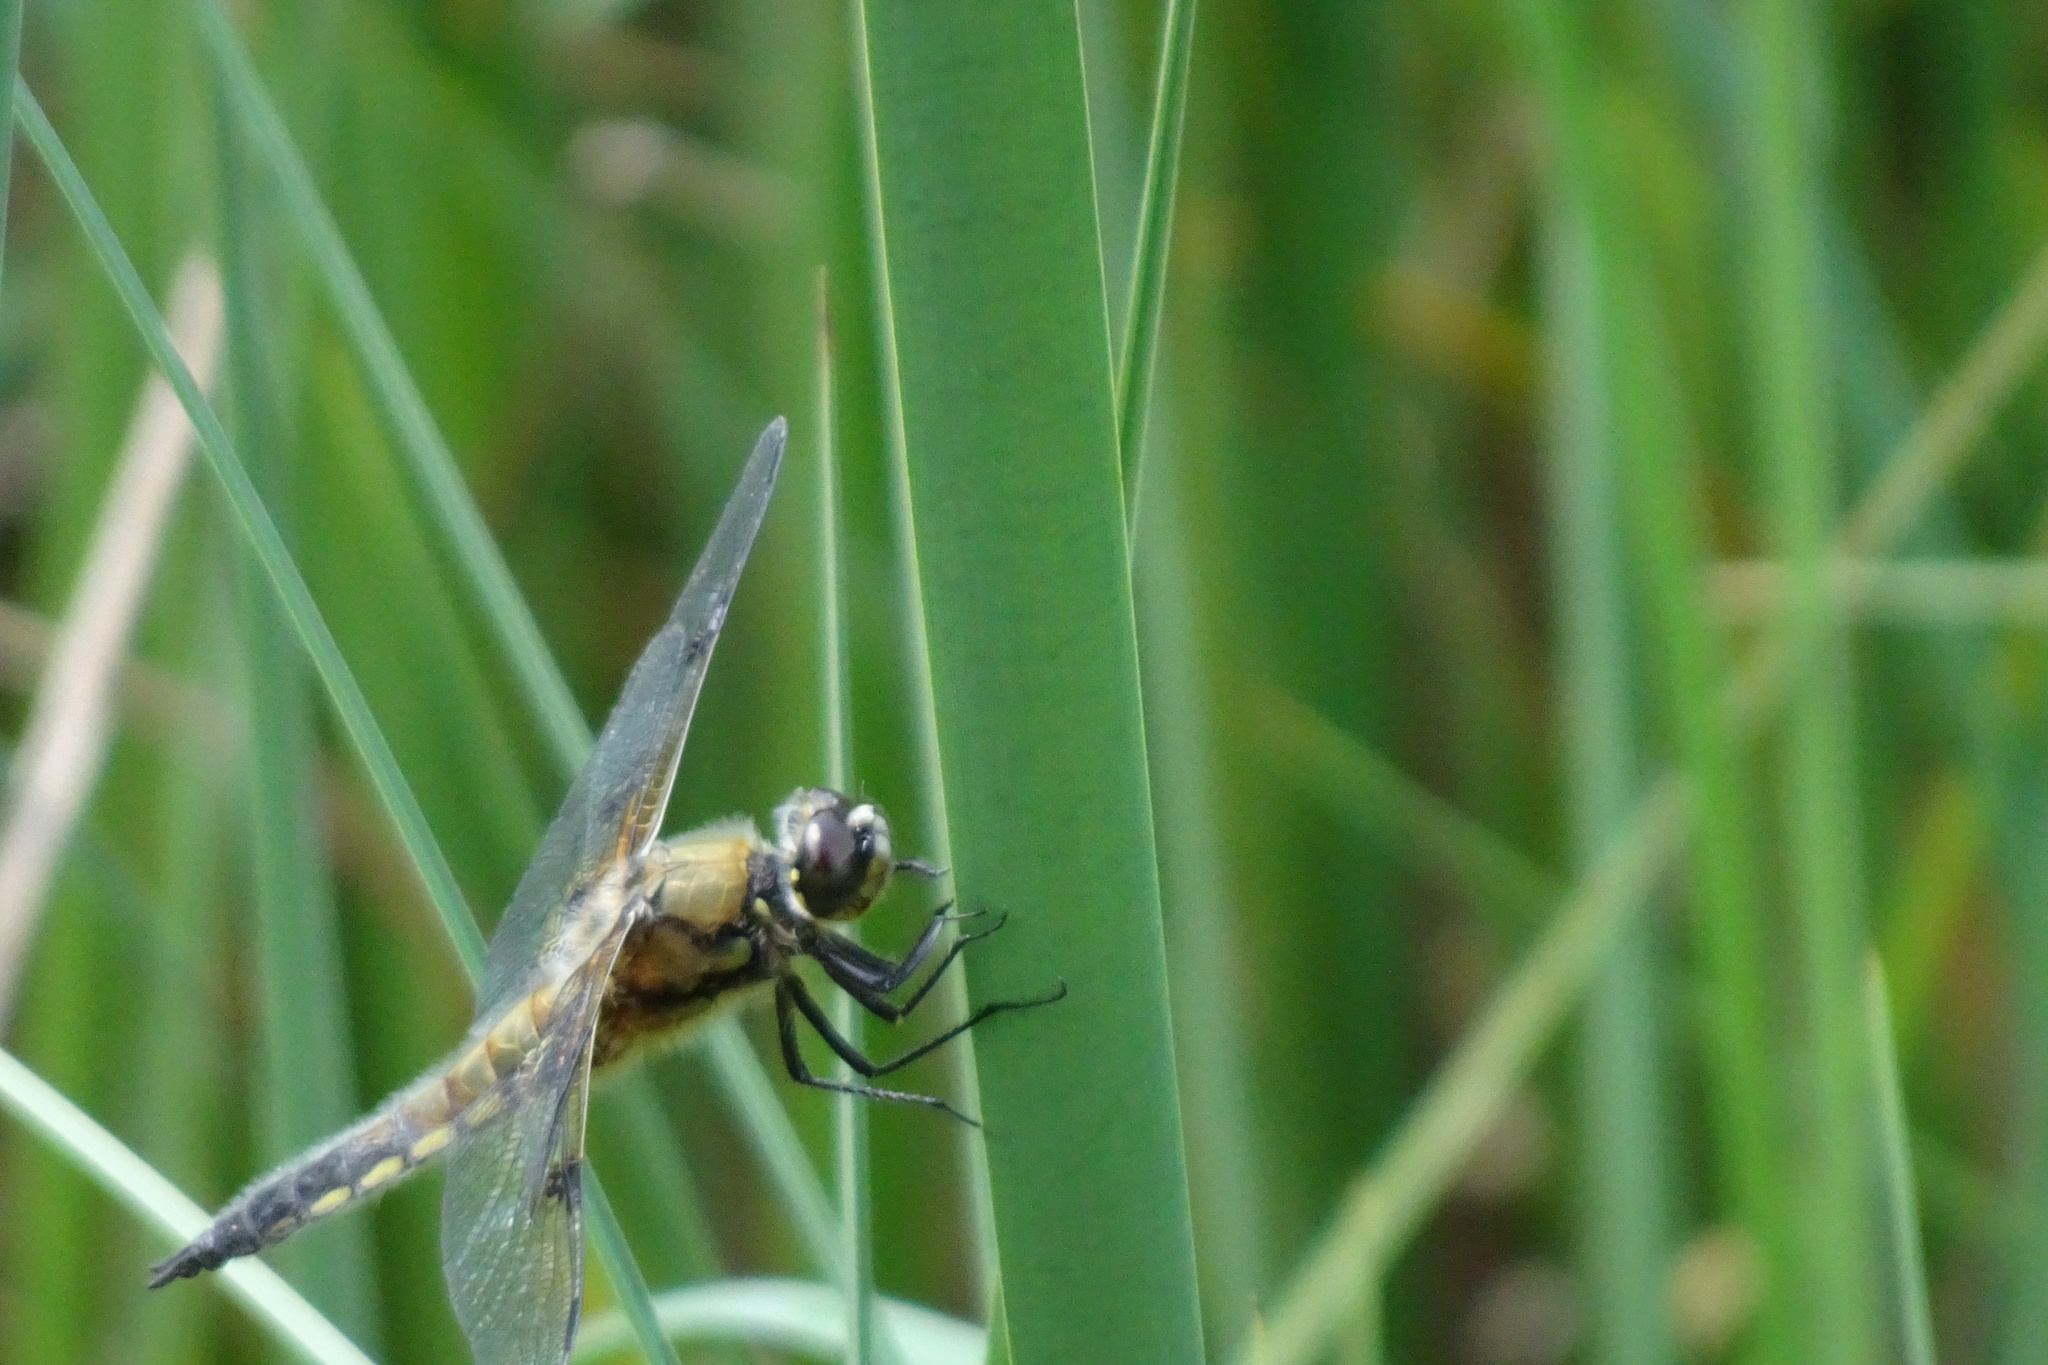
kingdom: Animalia
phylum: Arthropoda
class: Insecta
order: Odonata
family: Libellulidae
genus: Libellula
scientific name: Libellula quadrimaculata
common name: Four-spotted chaser
